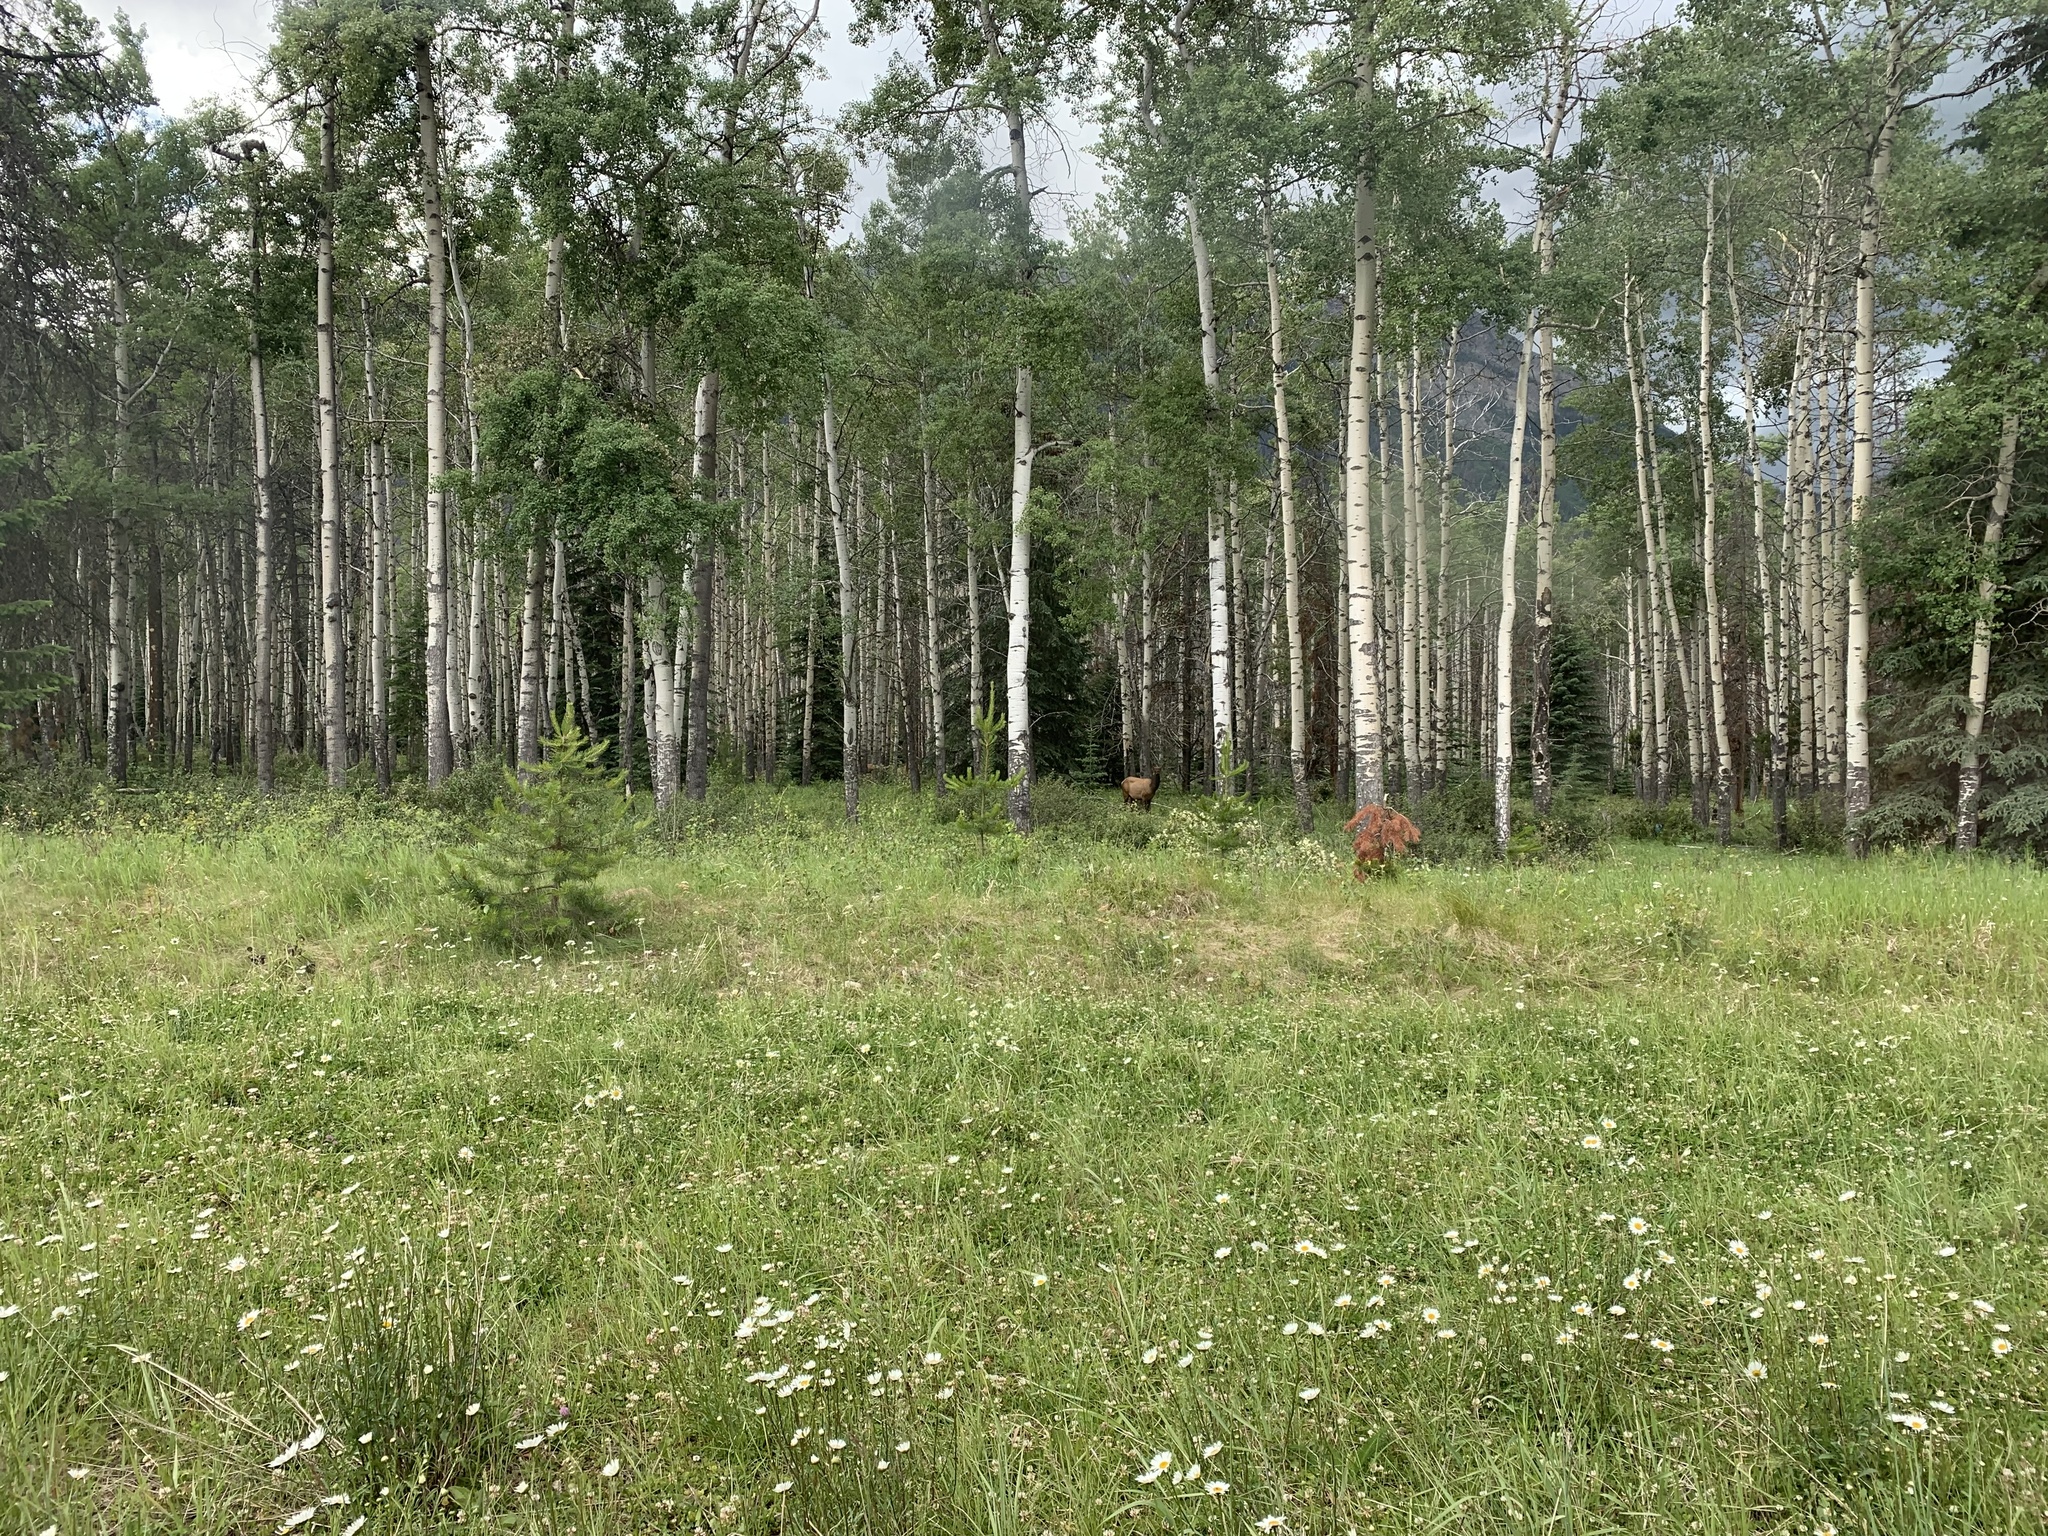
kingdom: Animalia
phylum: Chordata
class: Mammalia
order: Artiodactyla
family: Cervidae
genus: Cervus
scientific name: Cervus elaphus
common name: Red deer
